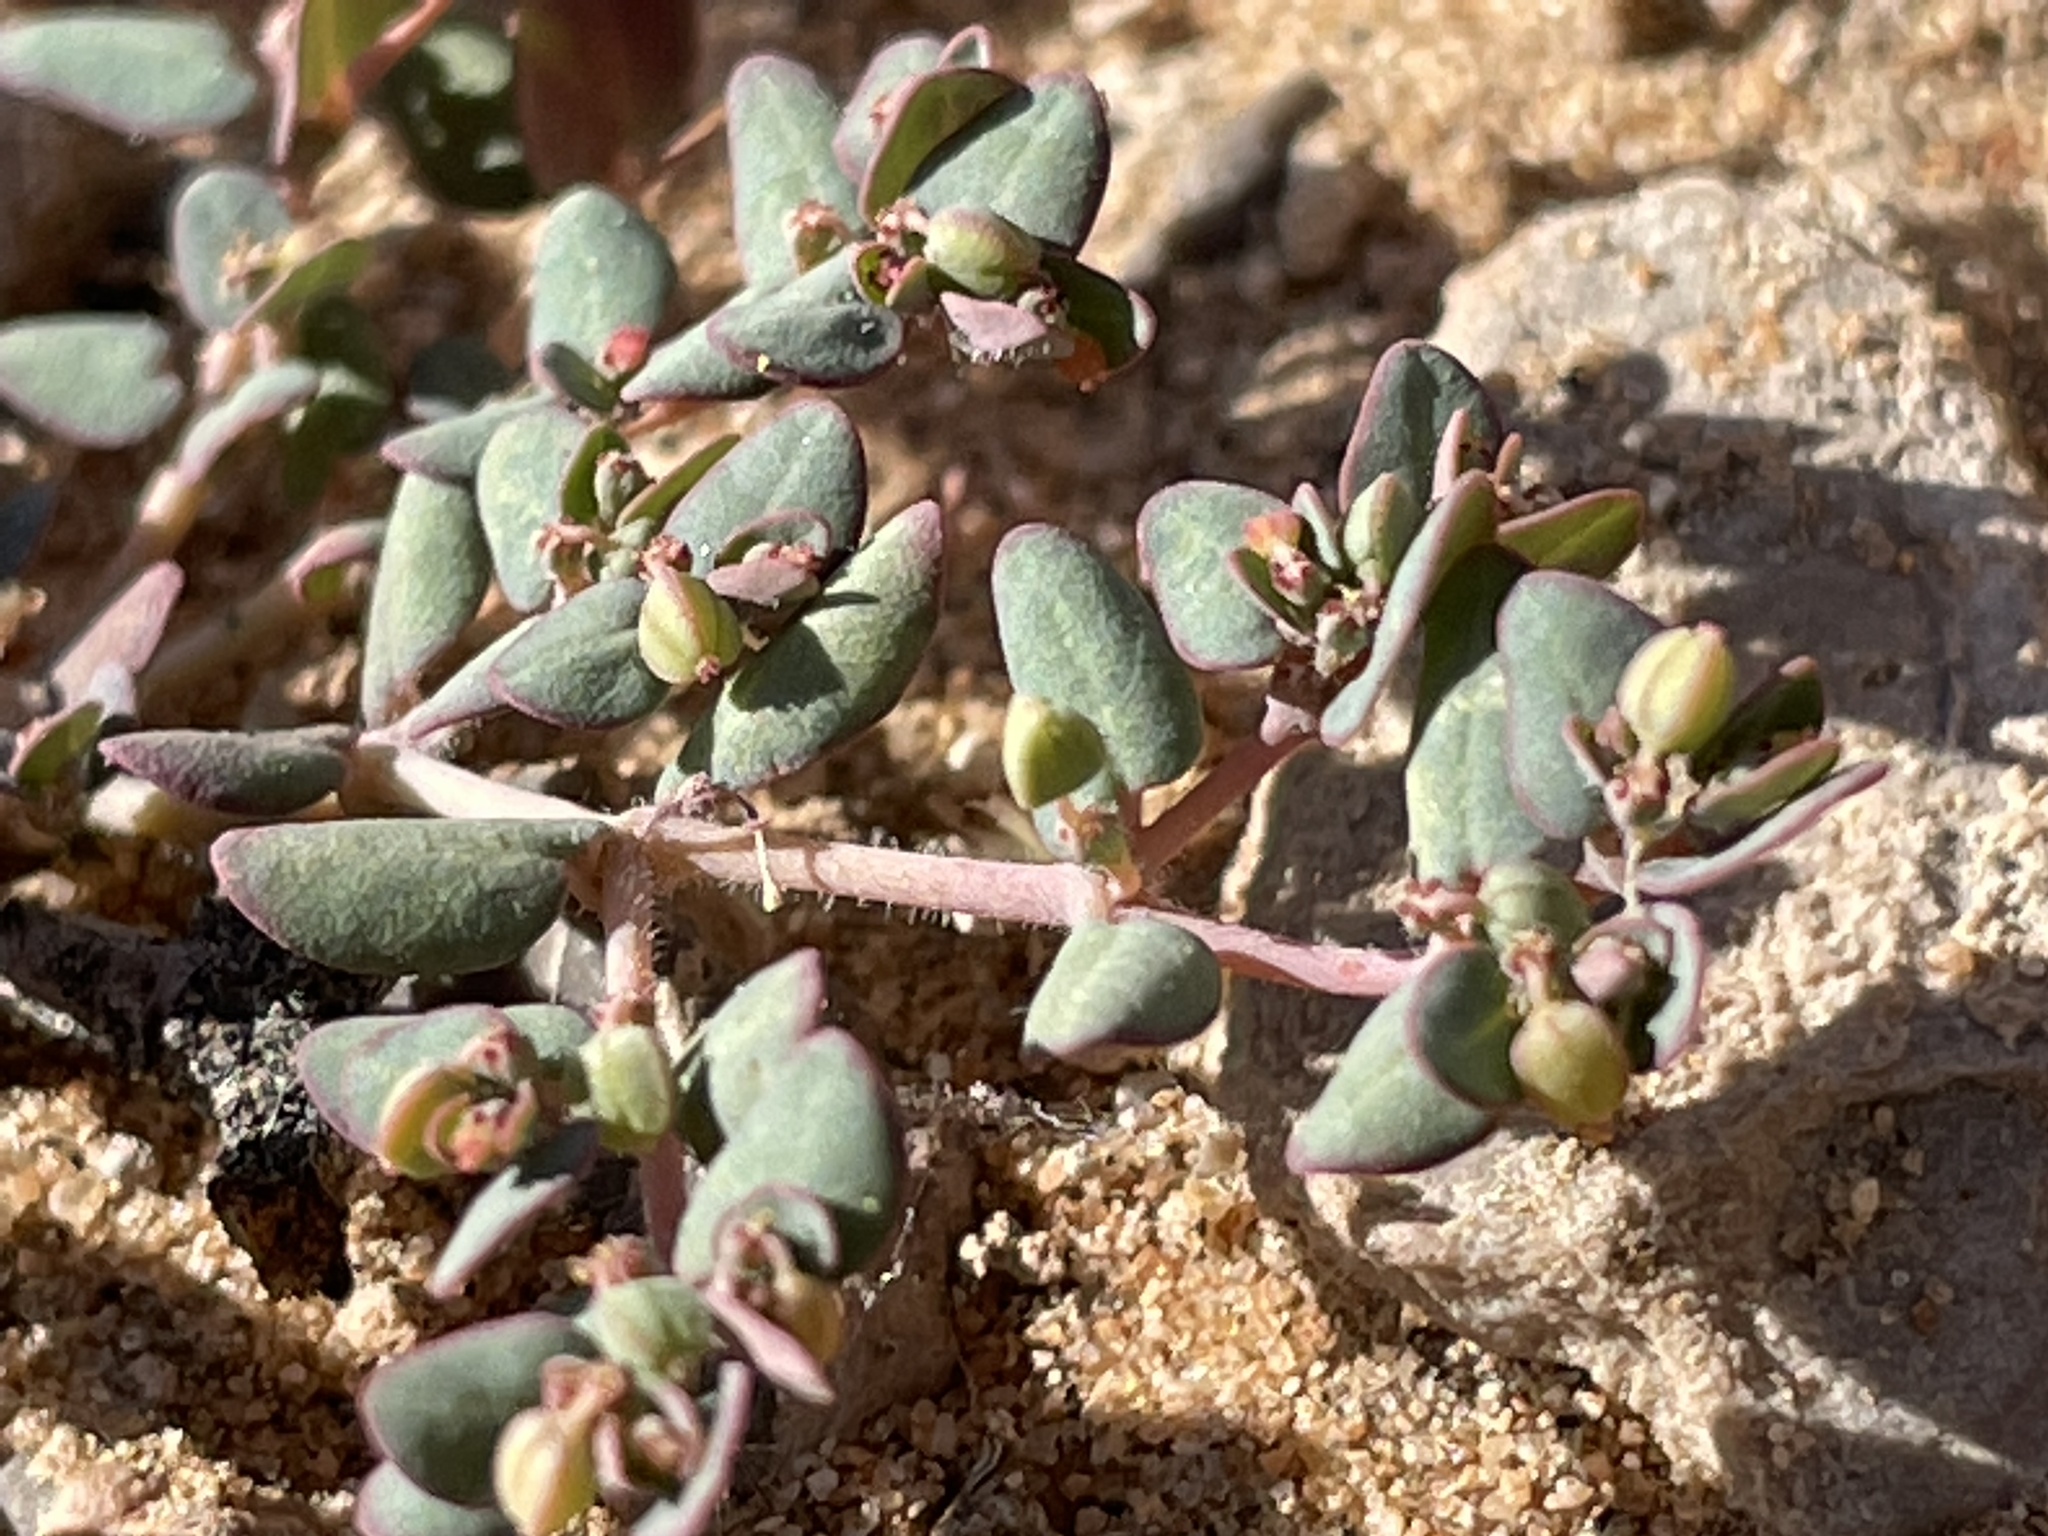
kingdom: Plantae
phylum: Tracheophyta
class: Magnoliopsida
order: Malpighiales
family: Euphorbiaceae
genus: Euphorbia
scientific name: Euphorbia micromera
